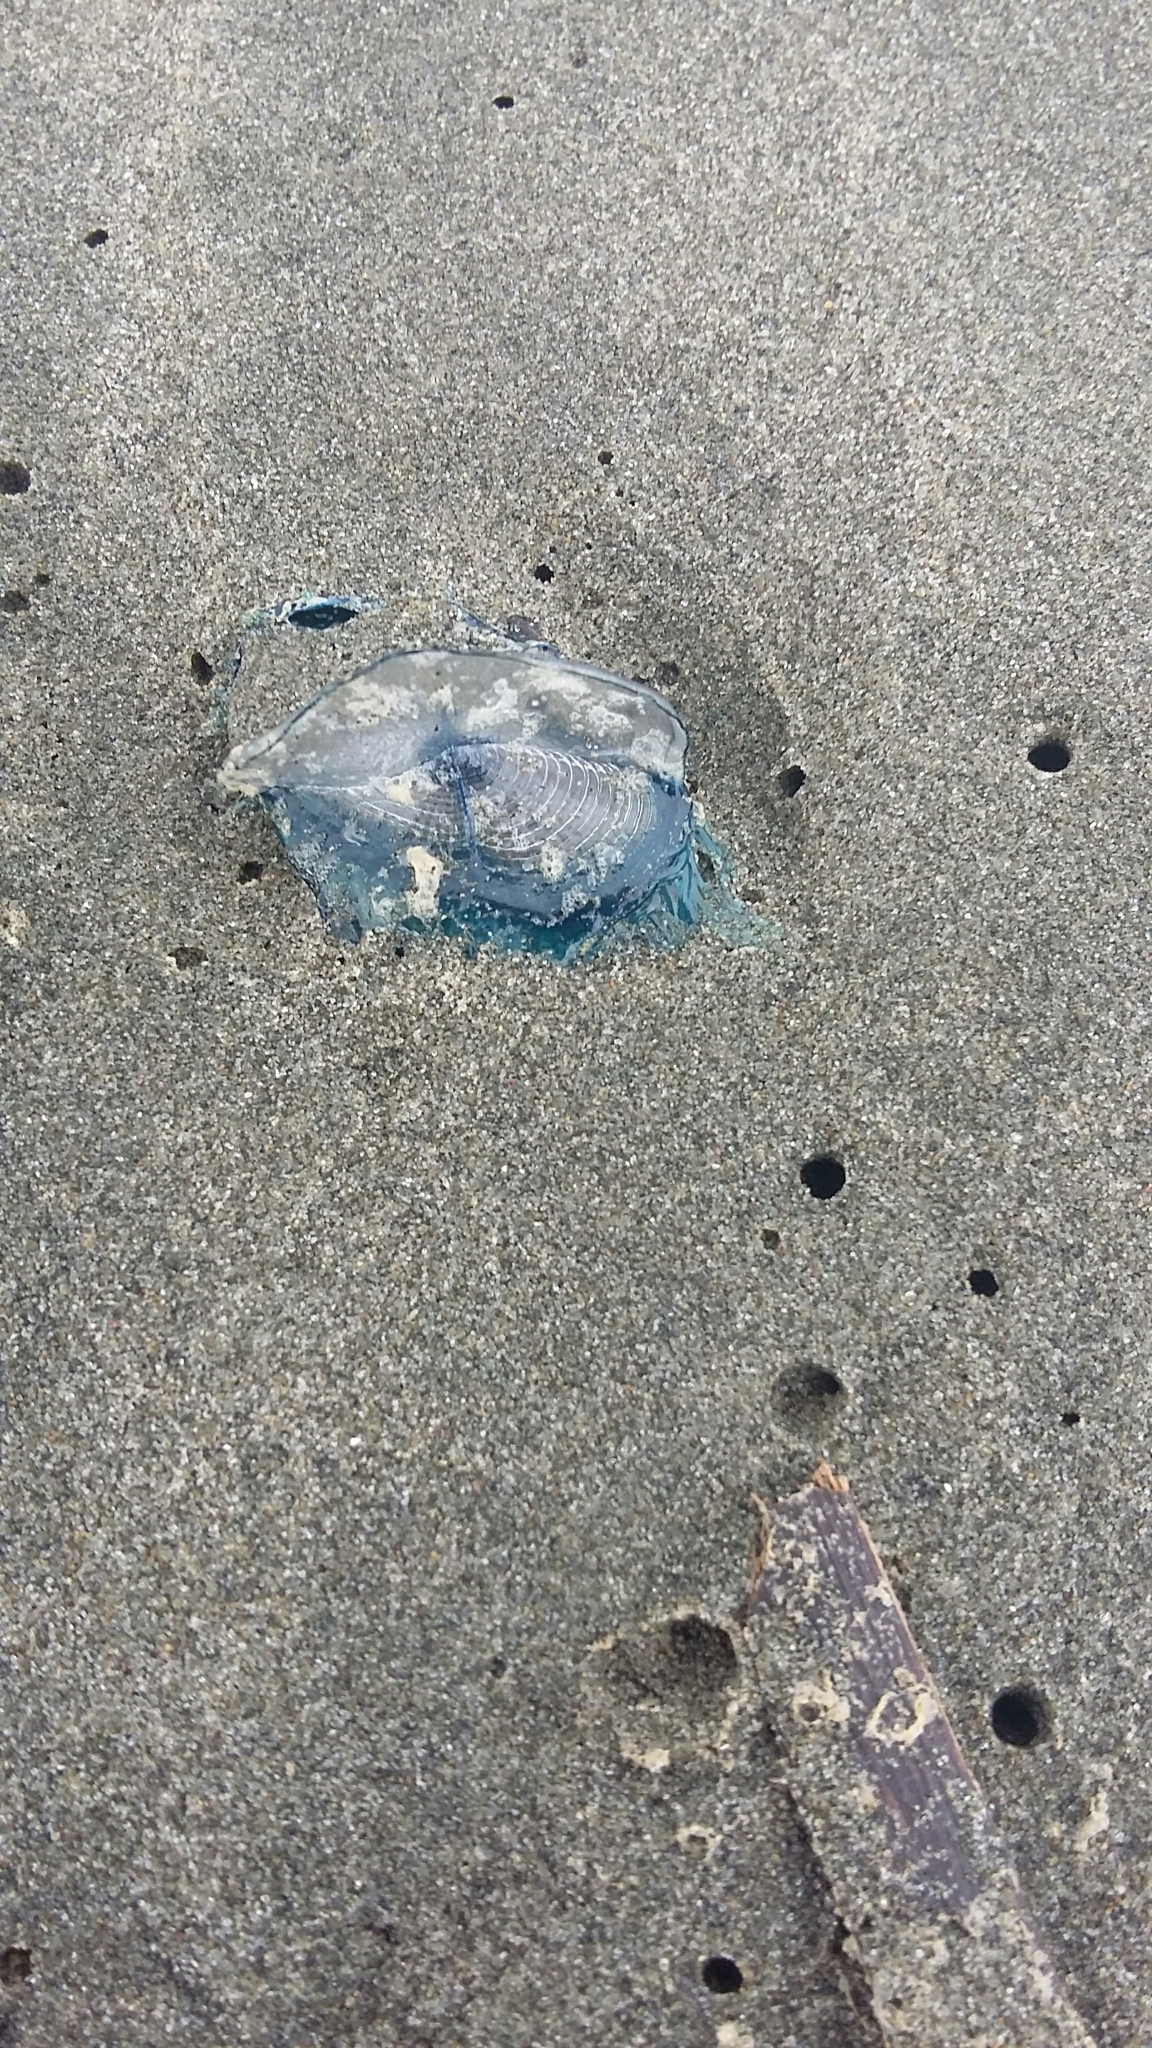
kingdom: Animalia
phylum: Cnidaria
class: Hydrozoa
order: Anthoathecata
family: Porpitidae
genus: Velella
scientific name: Velella velella
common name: By-the-wind-sailor
